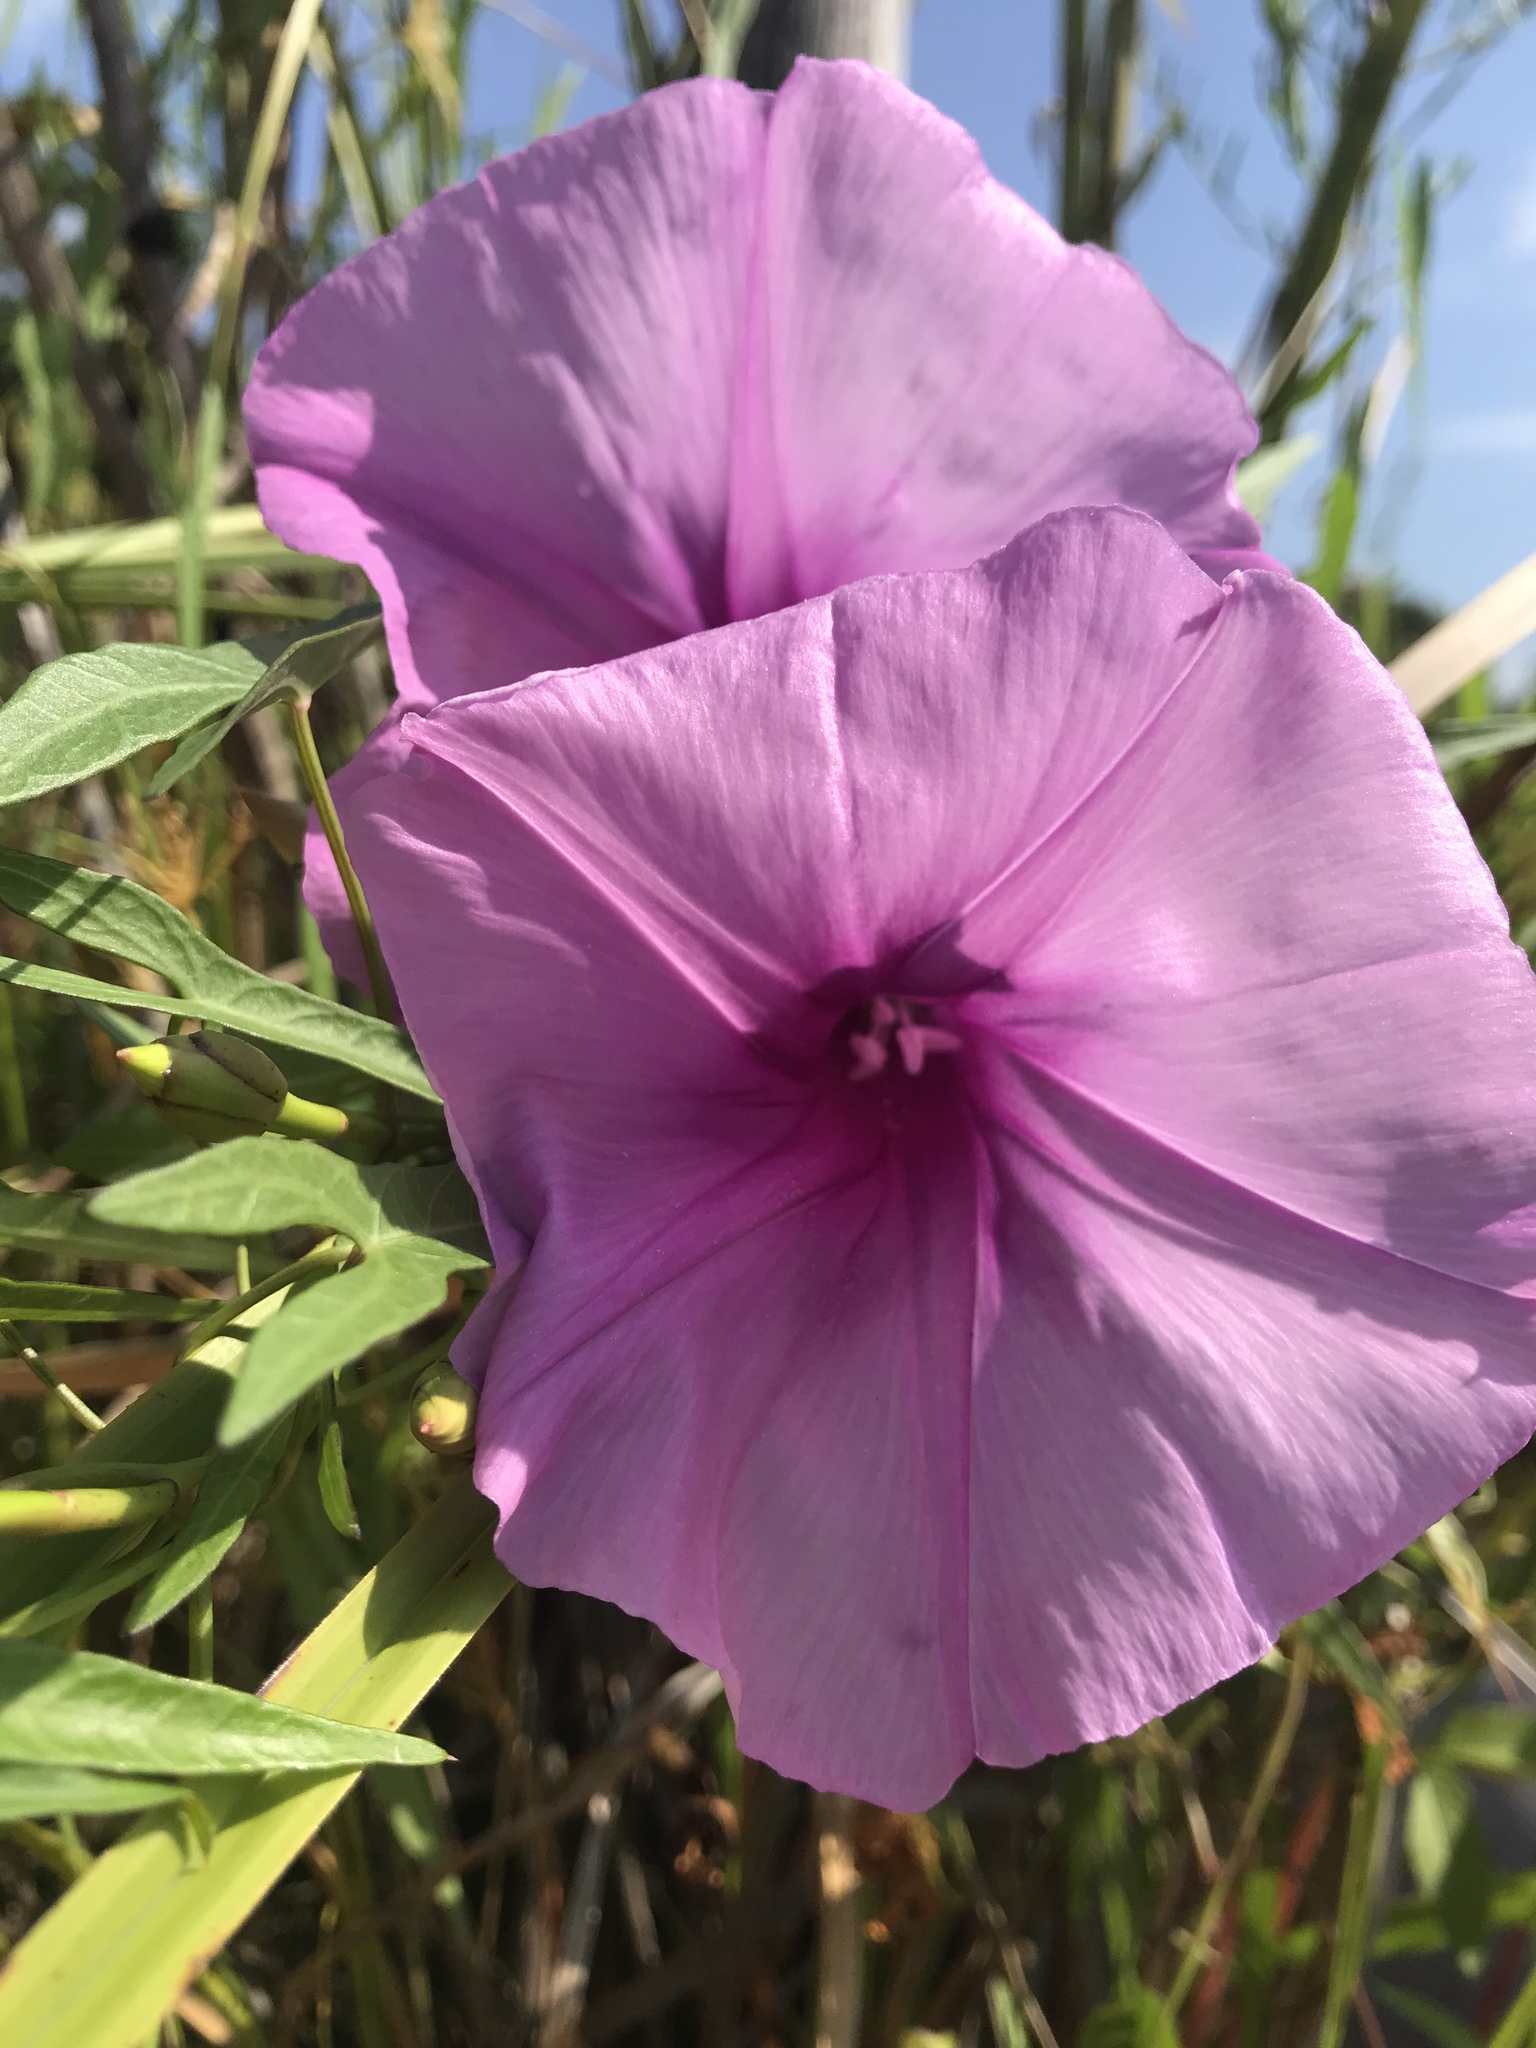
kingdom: Plantae
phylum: Tracheophyta
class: Magnoliopsida
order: Solanales
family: Convolvulaceae
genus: Ipomoea
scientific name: Ipomoea sagittata
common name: Saltmarsh morning glory
